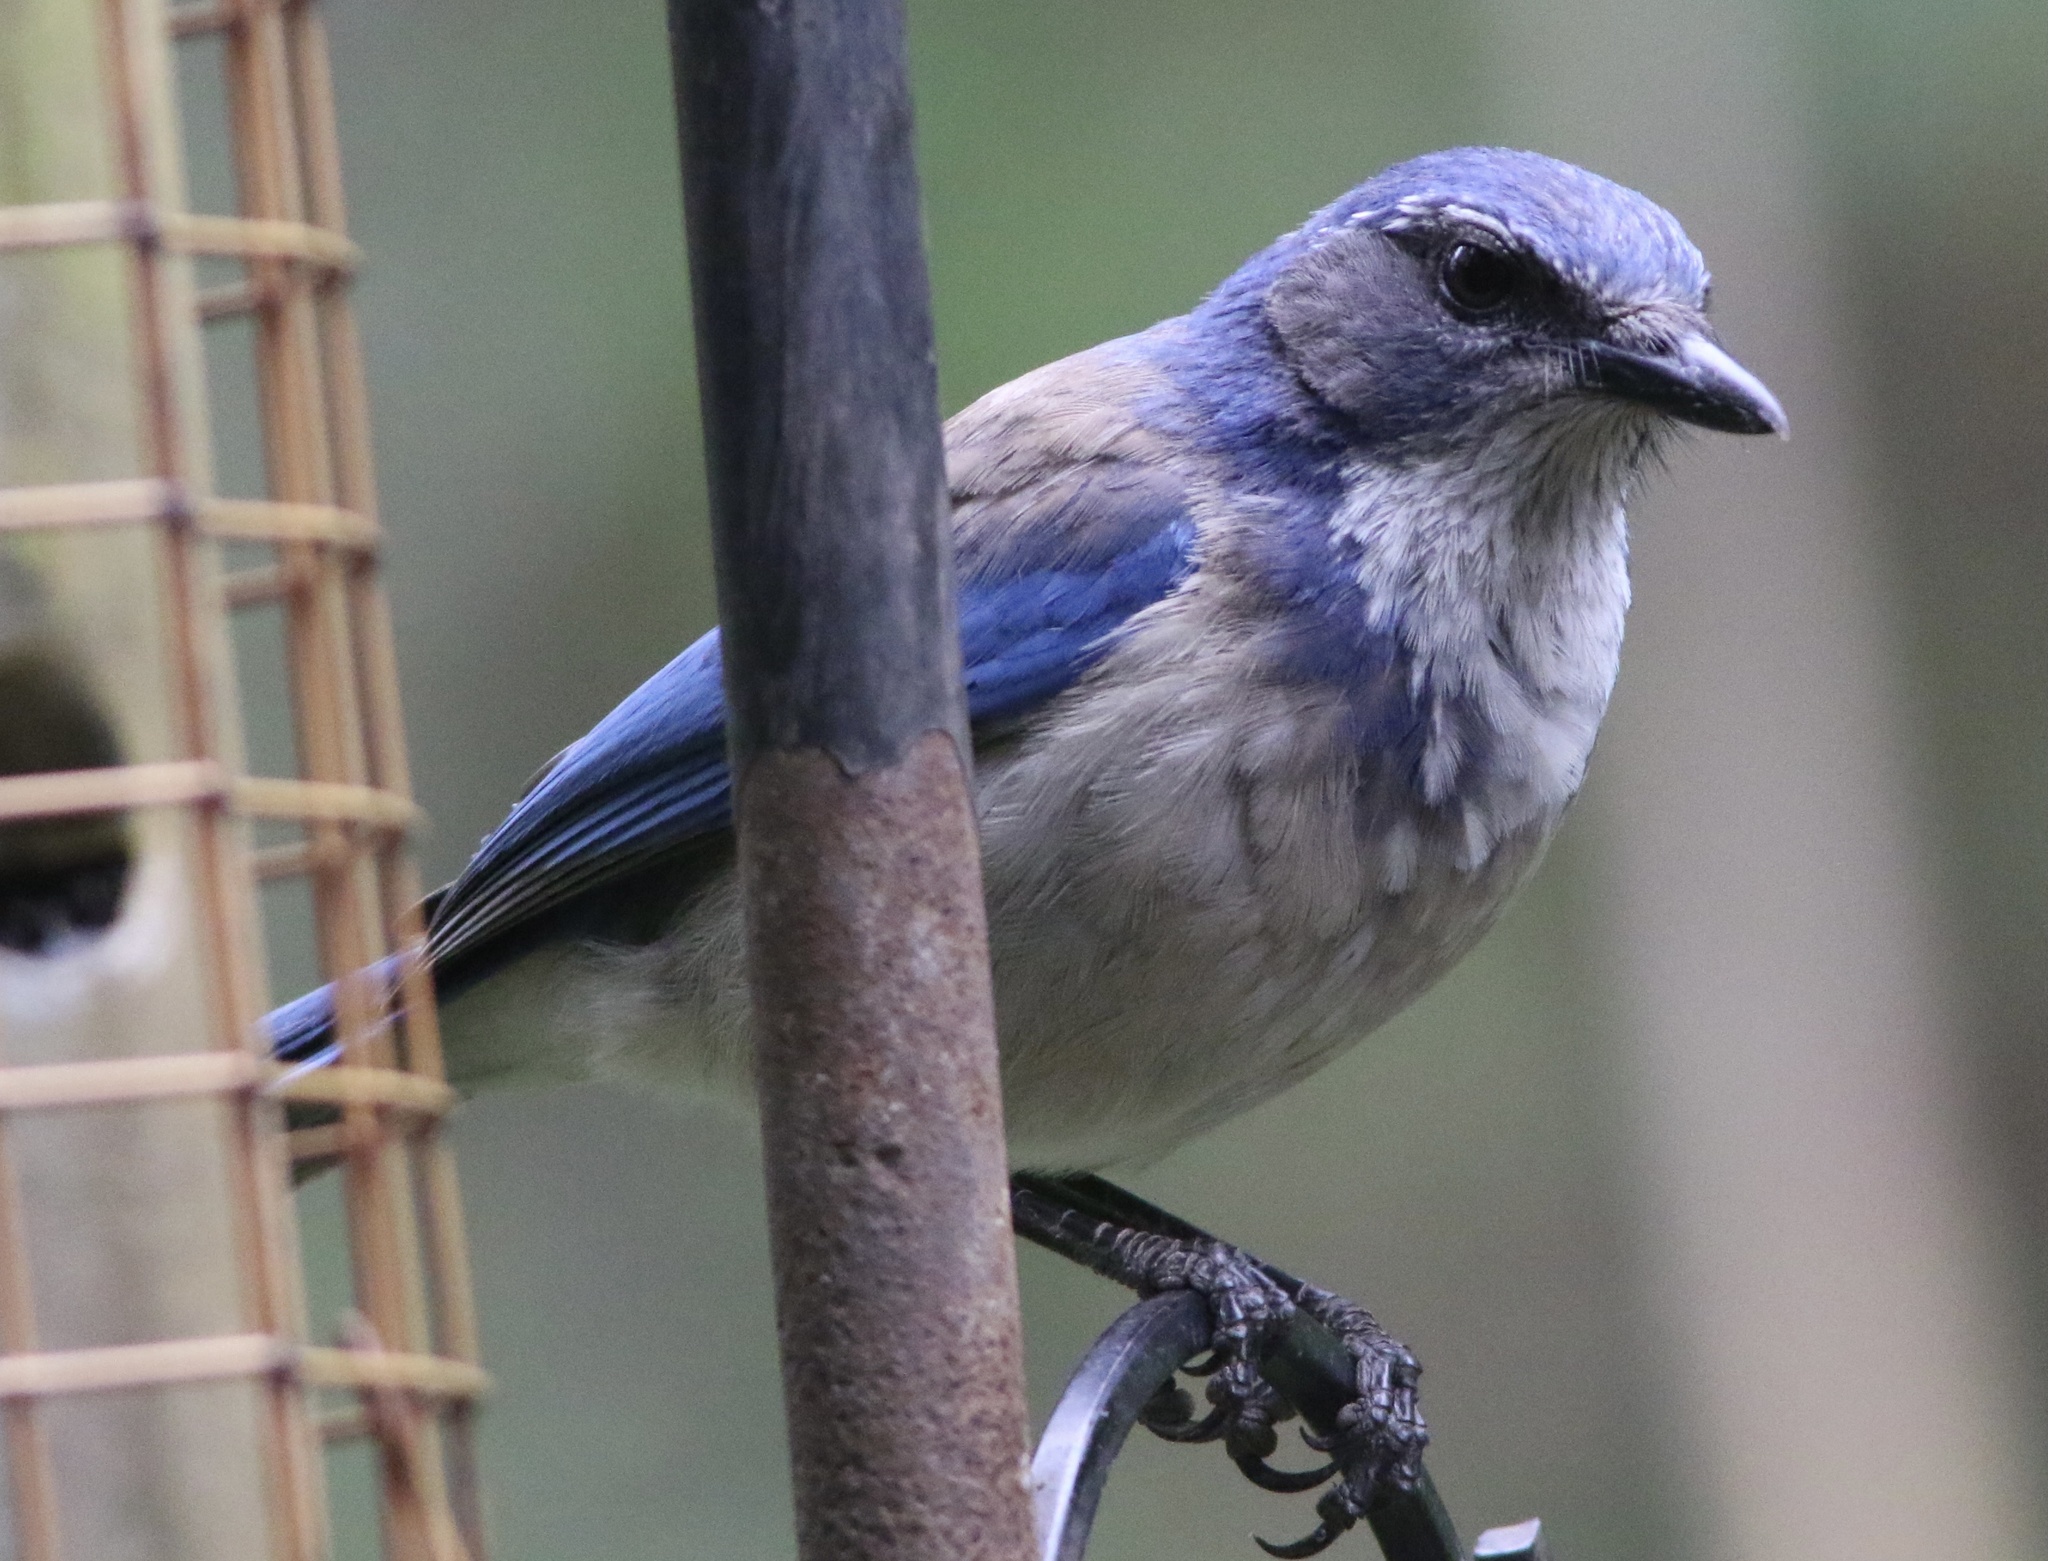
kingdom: Animalia
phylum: Chordata
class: Aves
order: Passeriformes
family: Corvidae
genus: Aphelocoma
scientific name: Aphelocoma californica
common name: California scrub-jay
